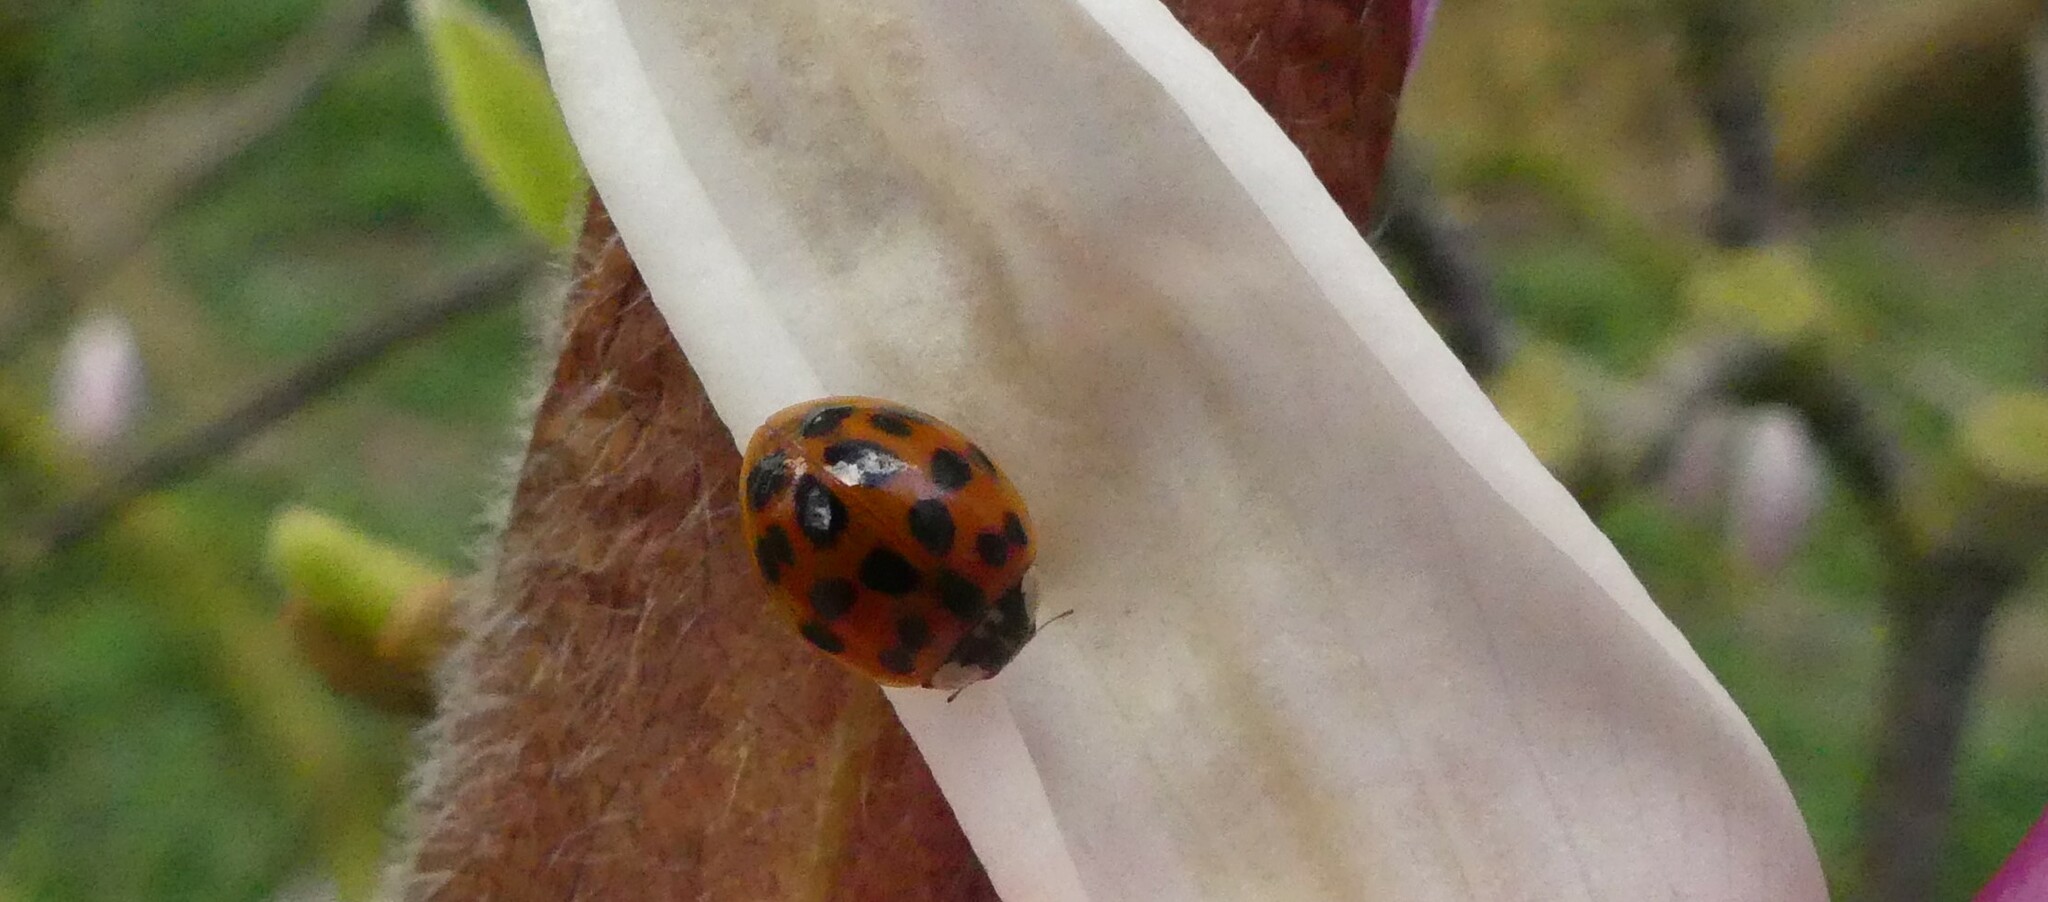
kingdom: Animalia
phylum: Arthropoda
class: Insecta
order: Coleoptera
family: Coccinellidae
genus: Harmonia
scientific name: Harmonia axyridis
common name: Harlequin ladybird
